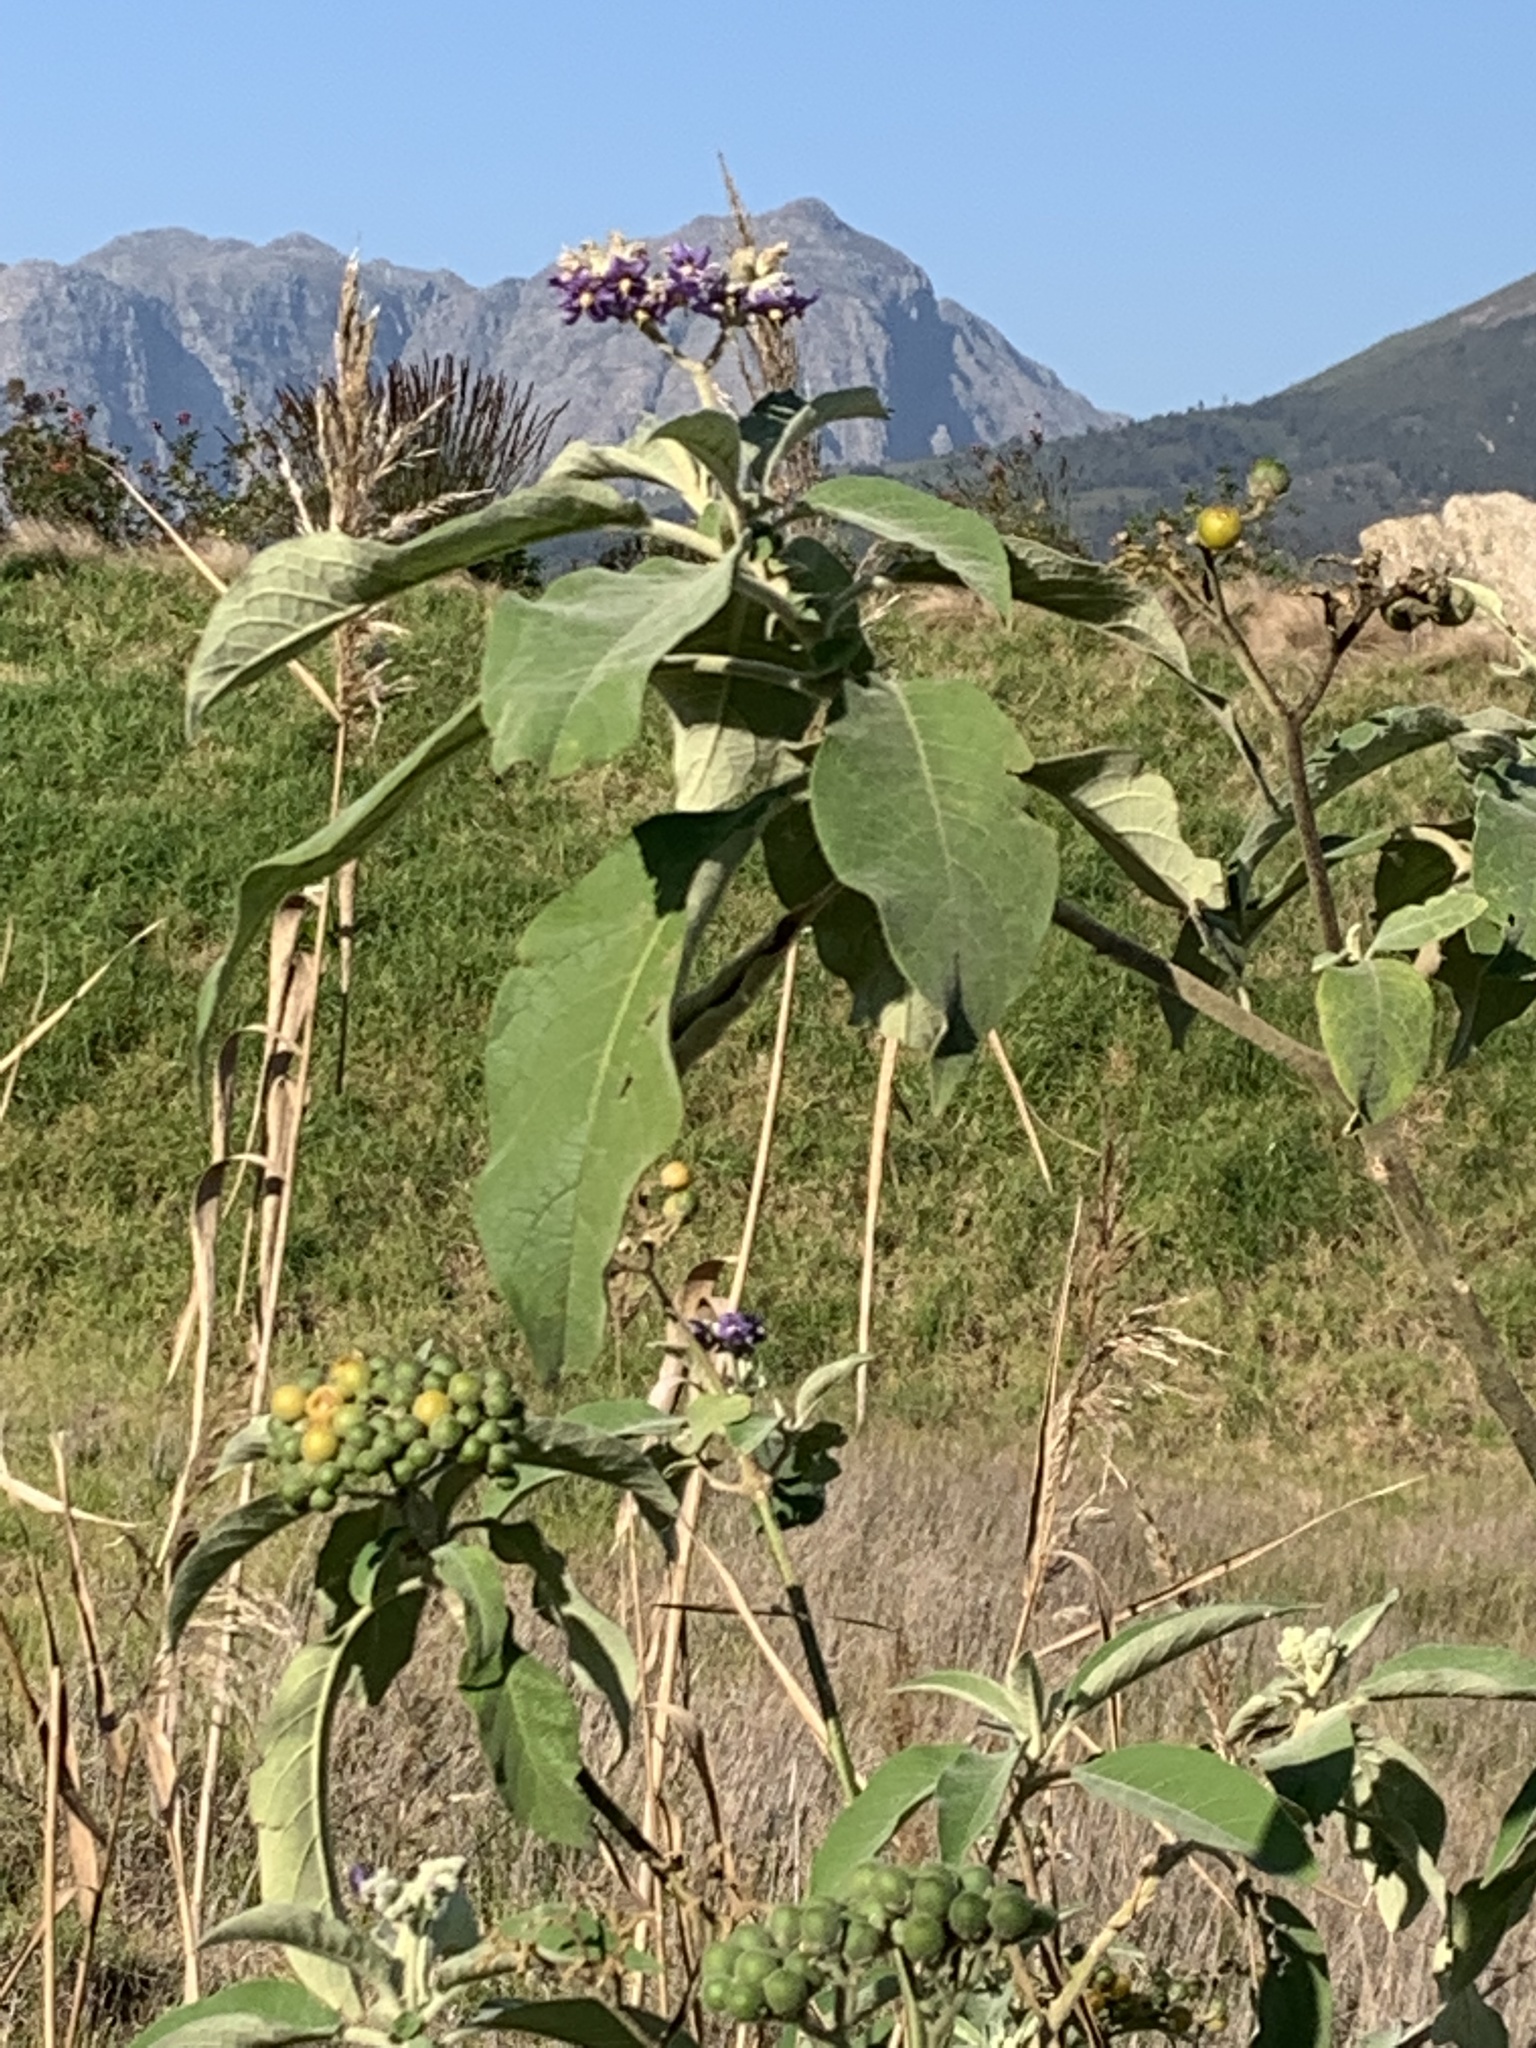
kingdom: Plantae
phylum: Tracheophyta
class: Magnoliopsida
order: Solanales
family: Solanaceae
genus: Solanum
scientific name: Solanum mauritianum
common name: Earleaf nightshade
